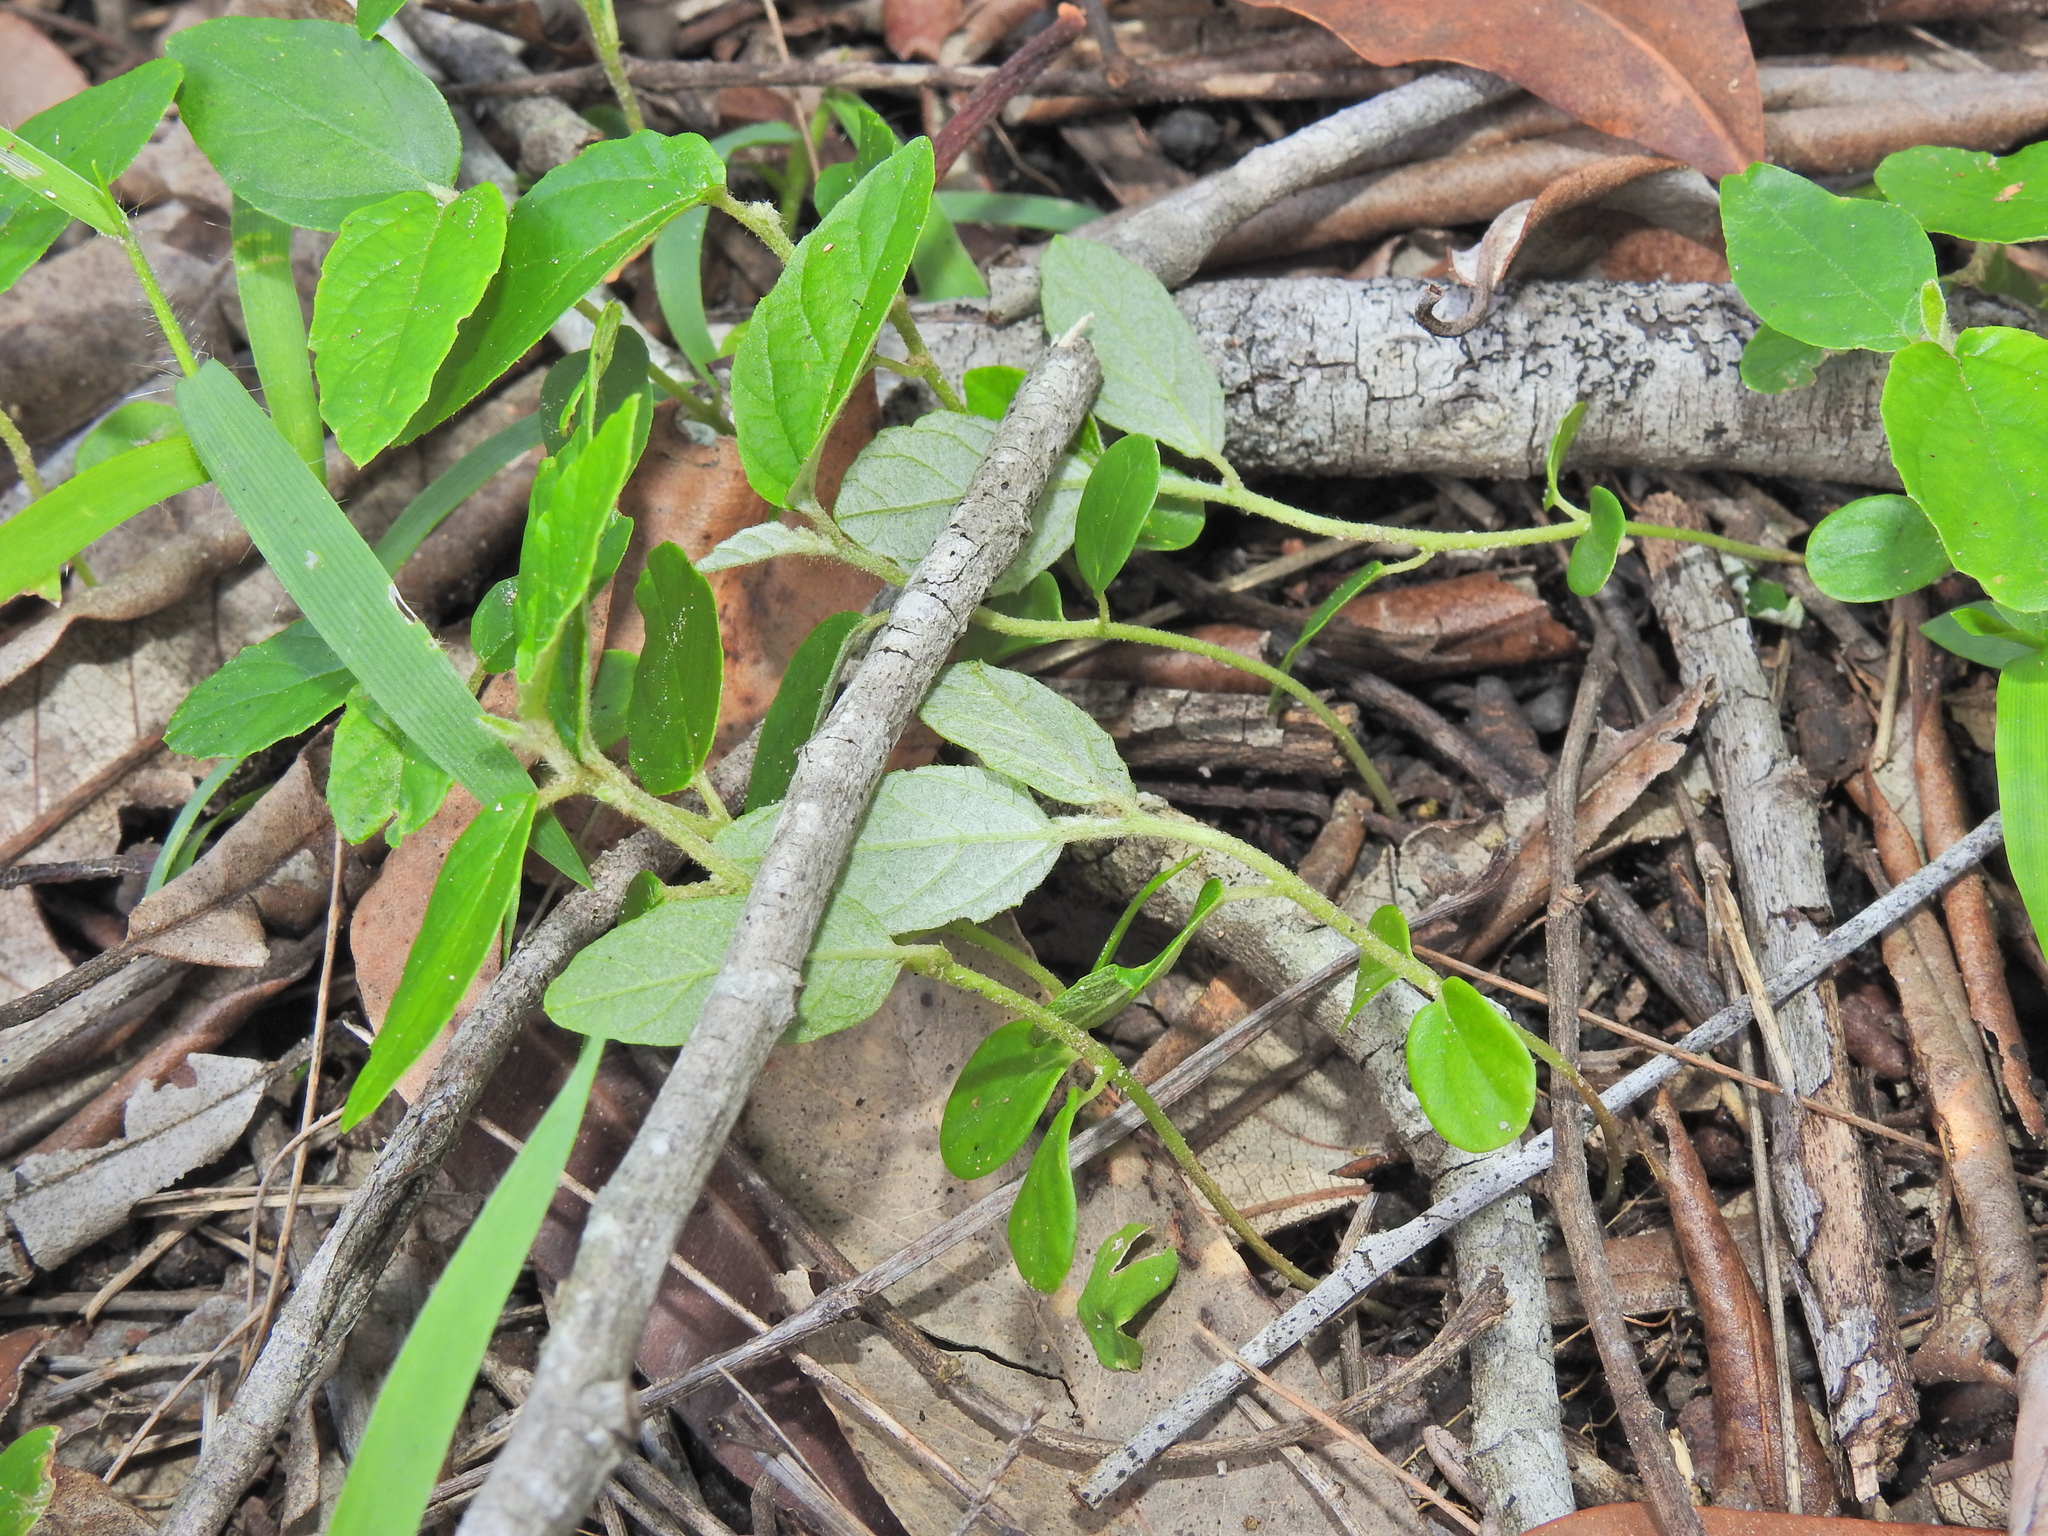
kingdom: Plantae
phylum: Tracheophyta
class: Magnoliopsida
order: Rosales
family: Rhamnaceae
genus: Alphitonia
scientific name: Alphitonia excelsa
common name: Red ash
